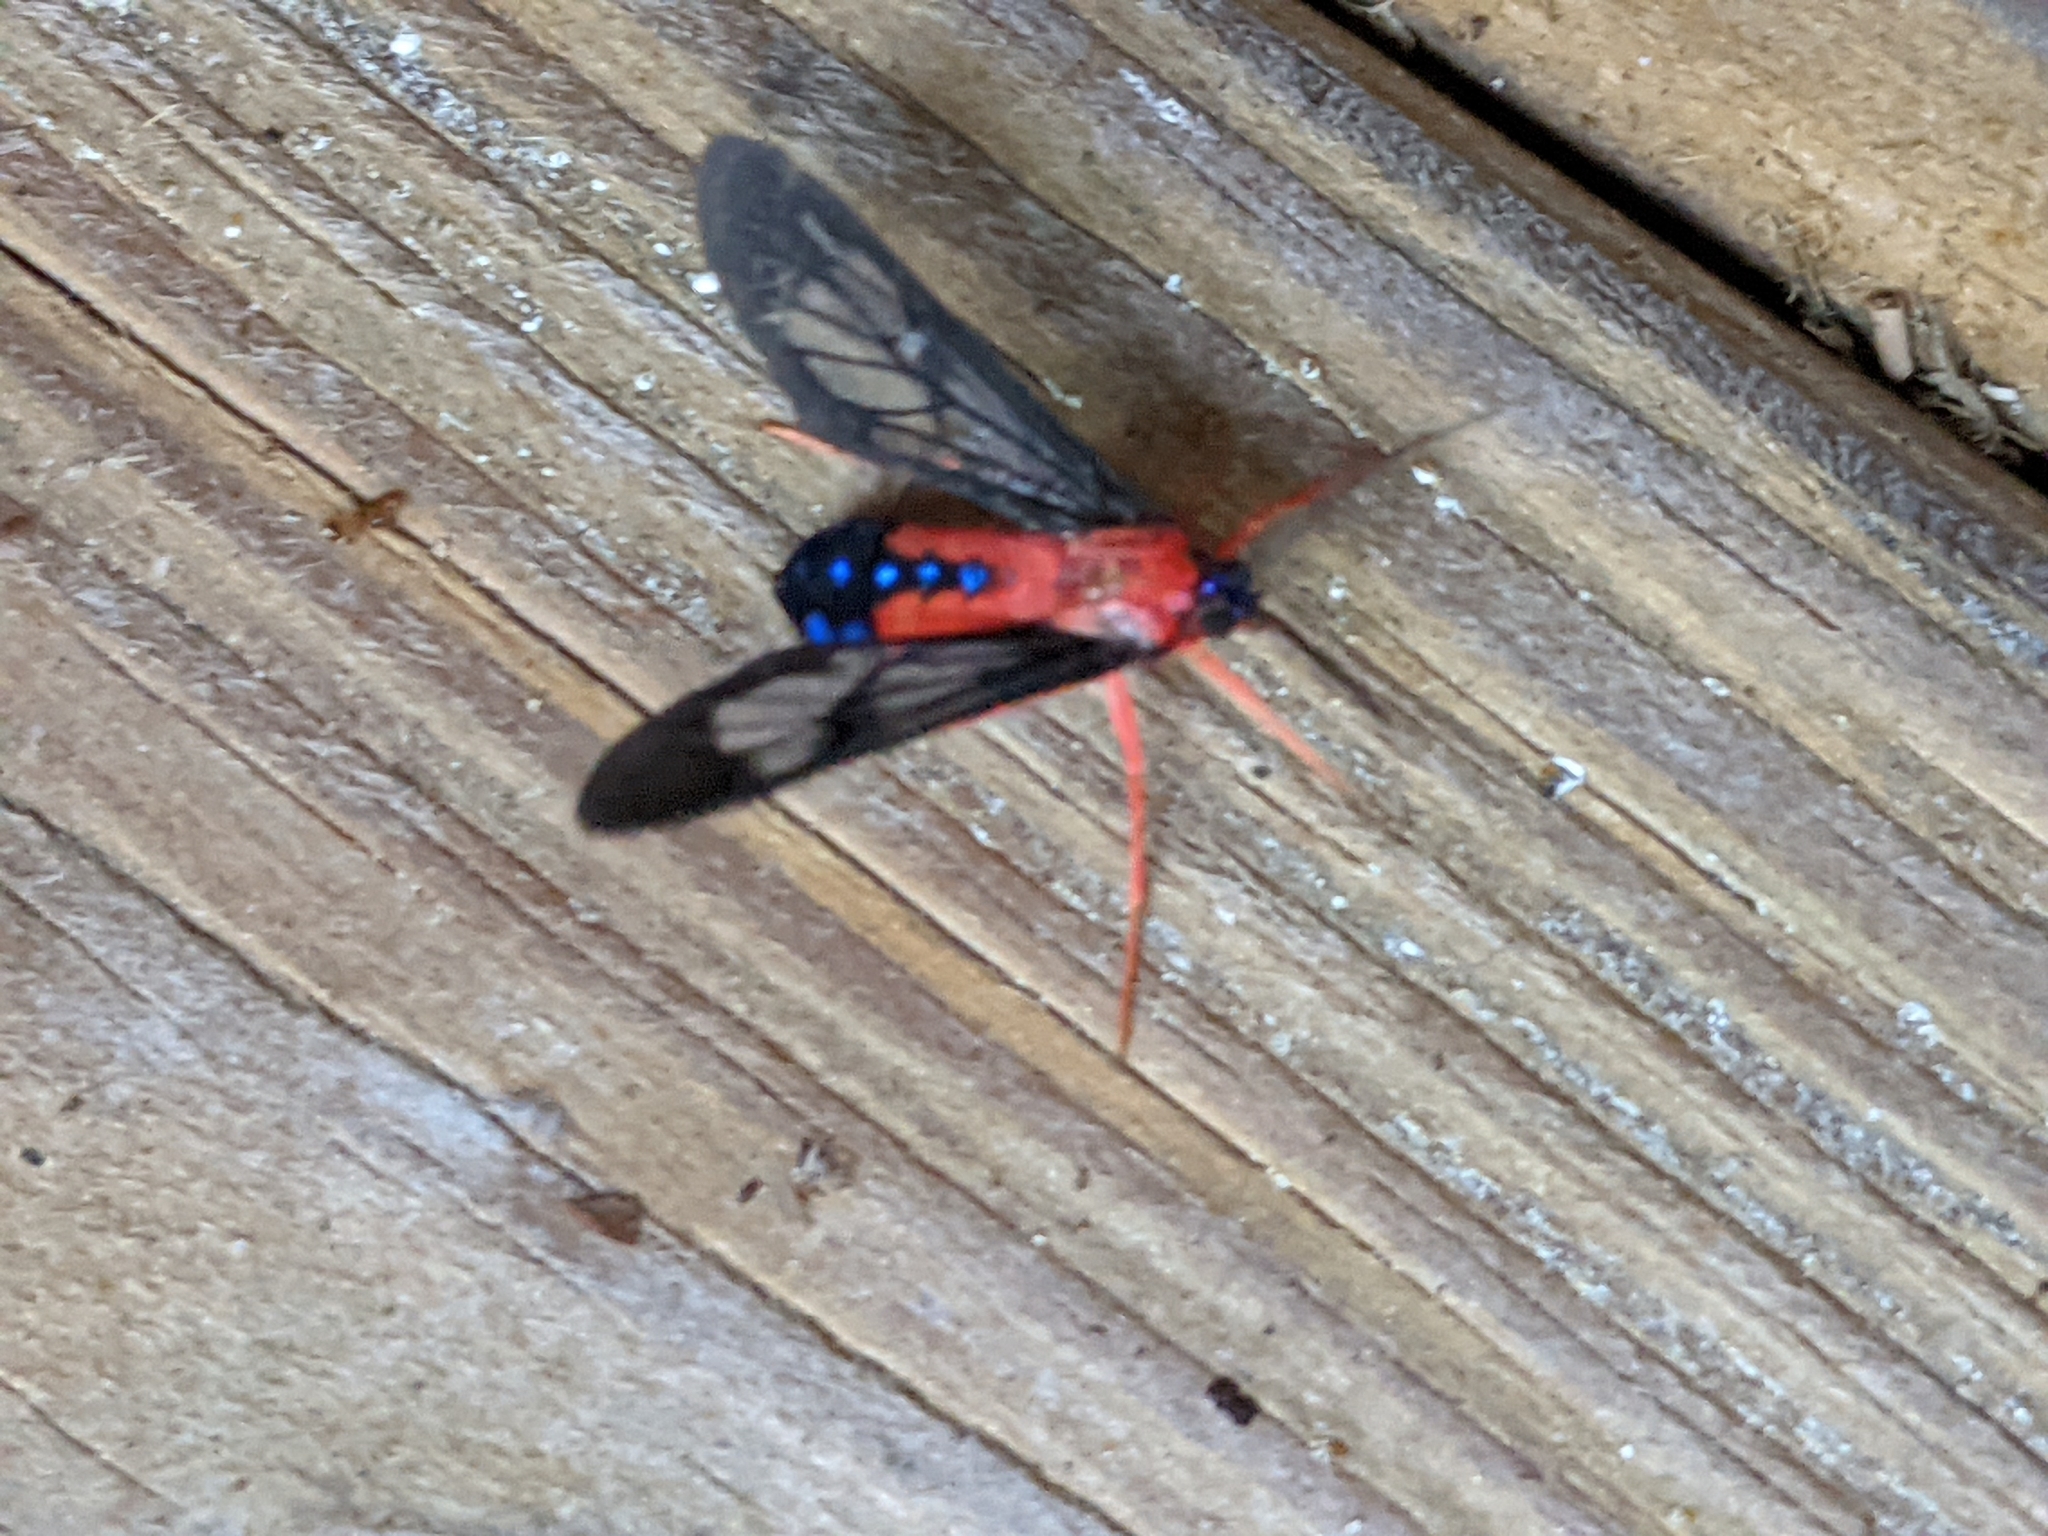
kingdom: Animalia
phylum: Arthropoda
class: Insecta
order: Lepidoptera
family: Erebidae
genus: Cosmosoma
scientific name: Cosmosoma myrodora
